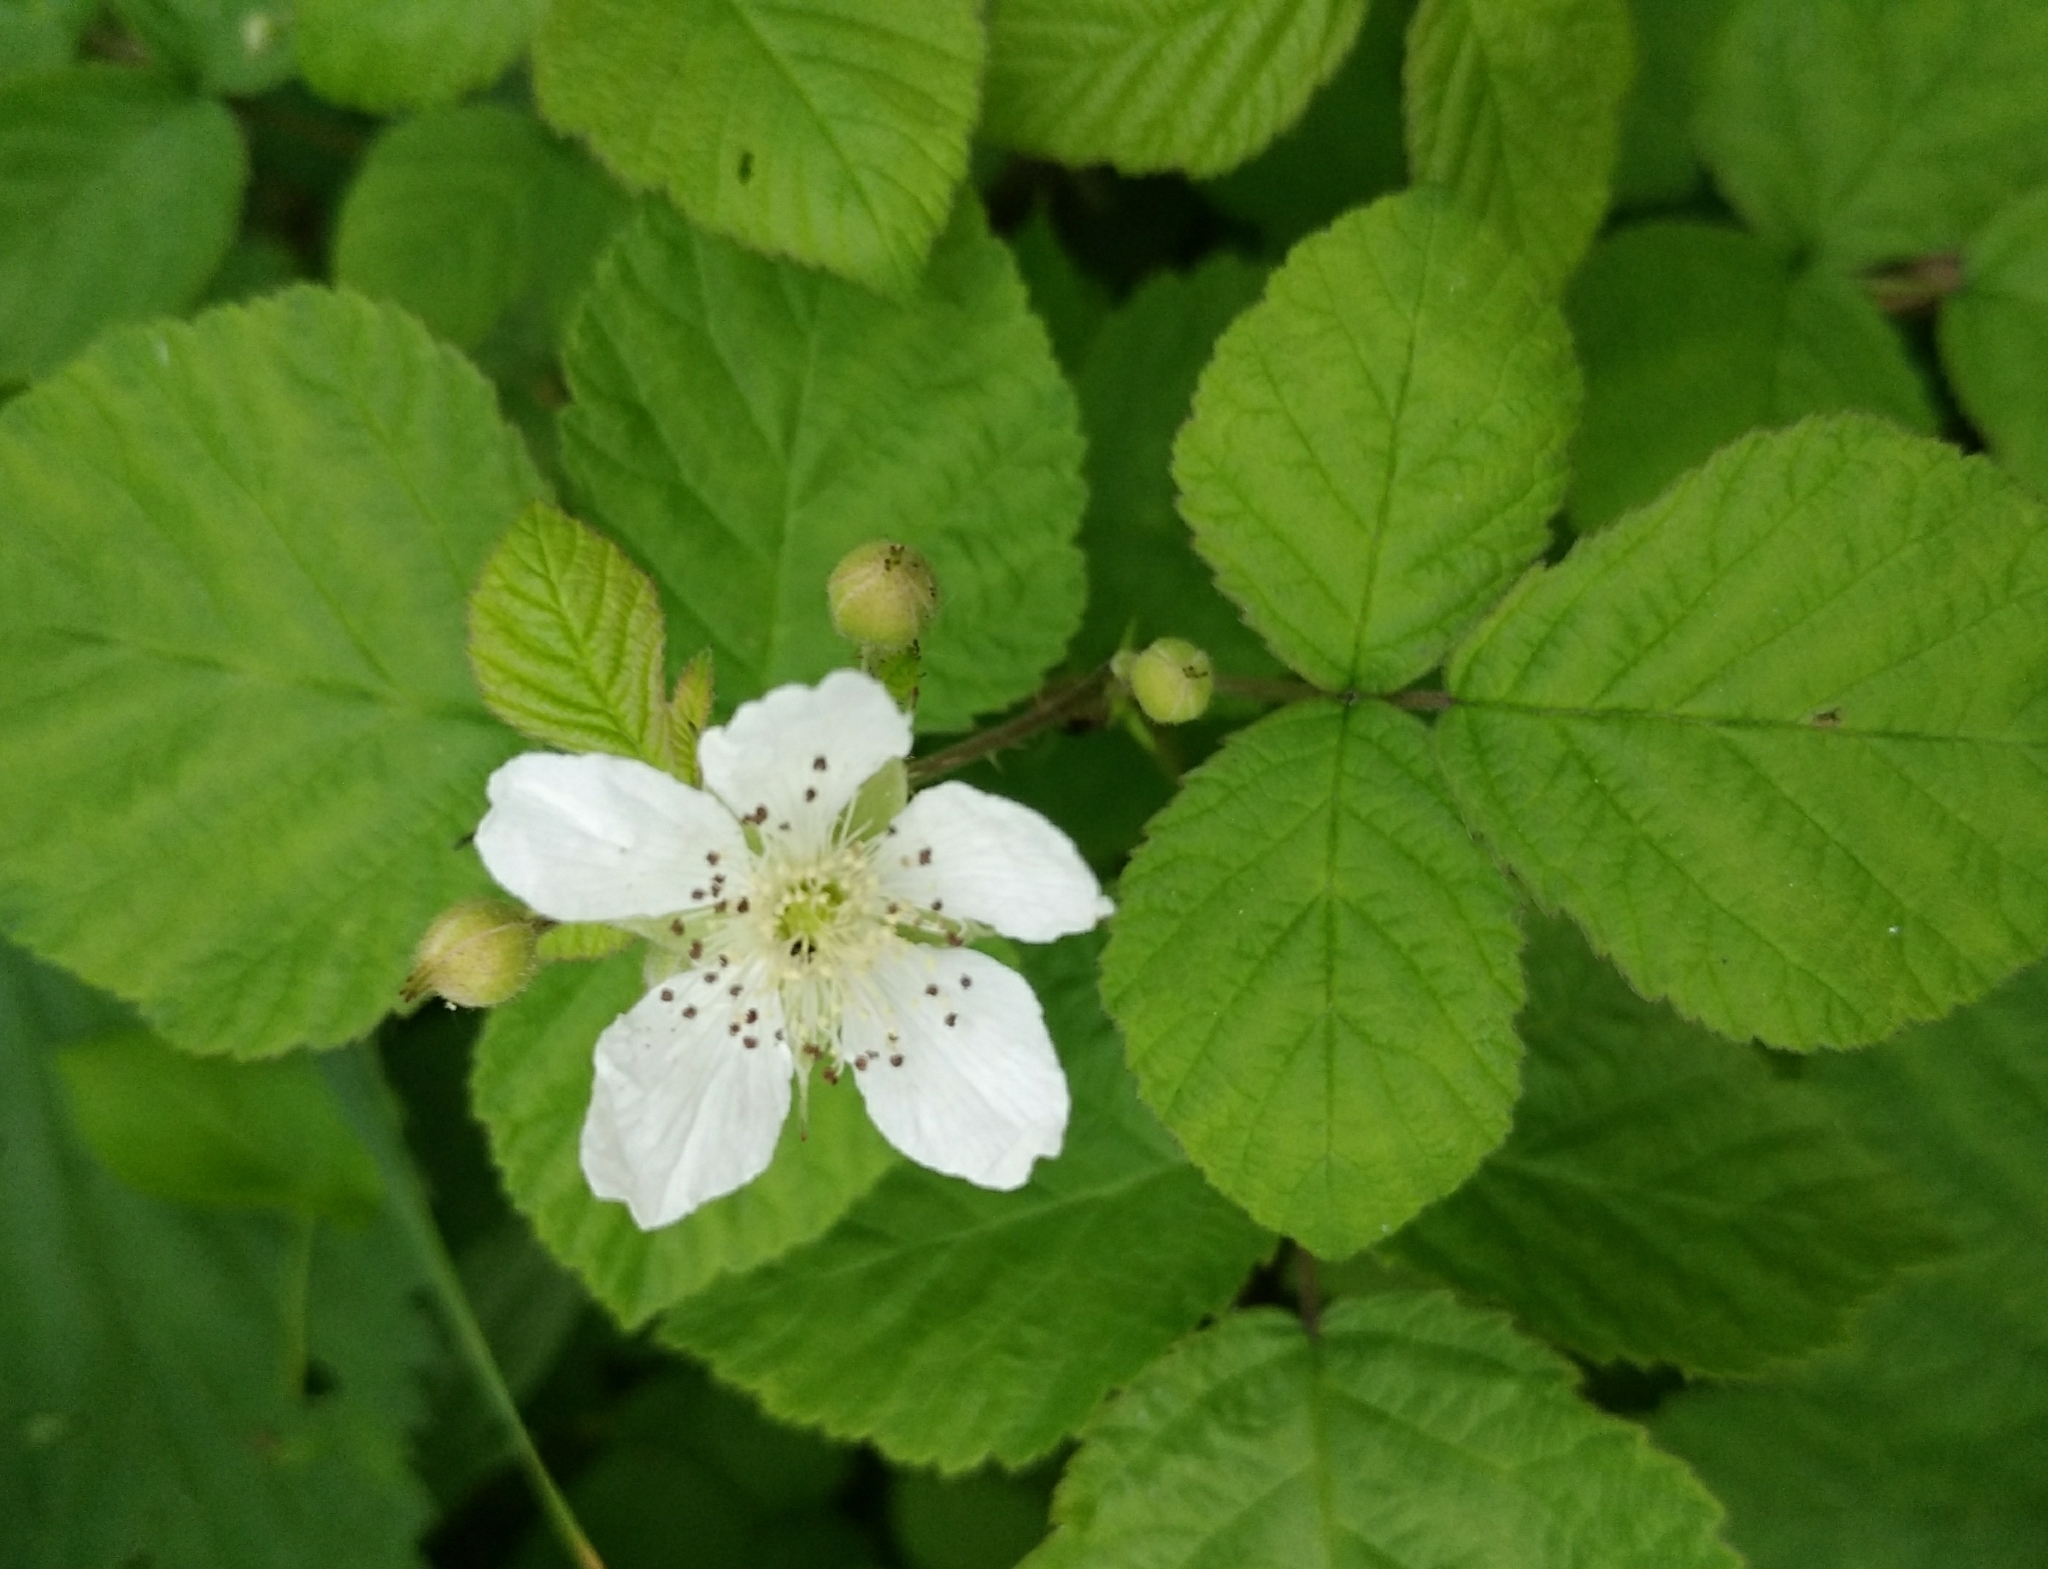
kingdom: Plantae
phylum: Tracheophyta
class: Magnoliopsida
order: Rosales
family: Rosaceae
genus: Rubus
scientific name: Rubus caesius
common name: Dewberry
